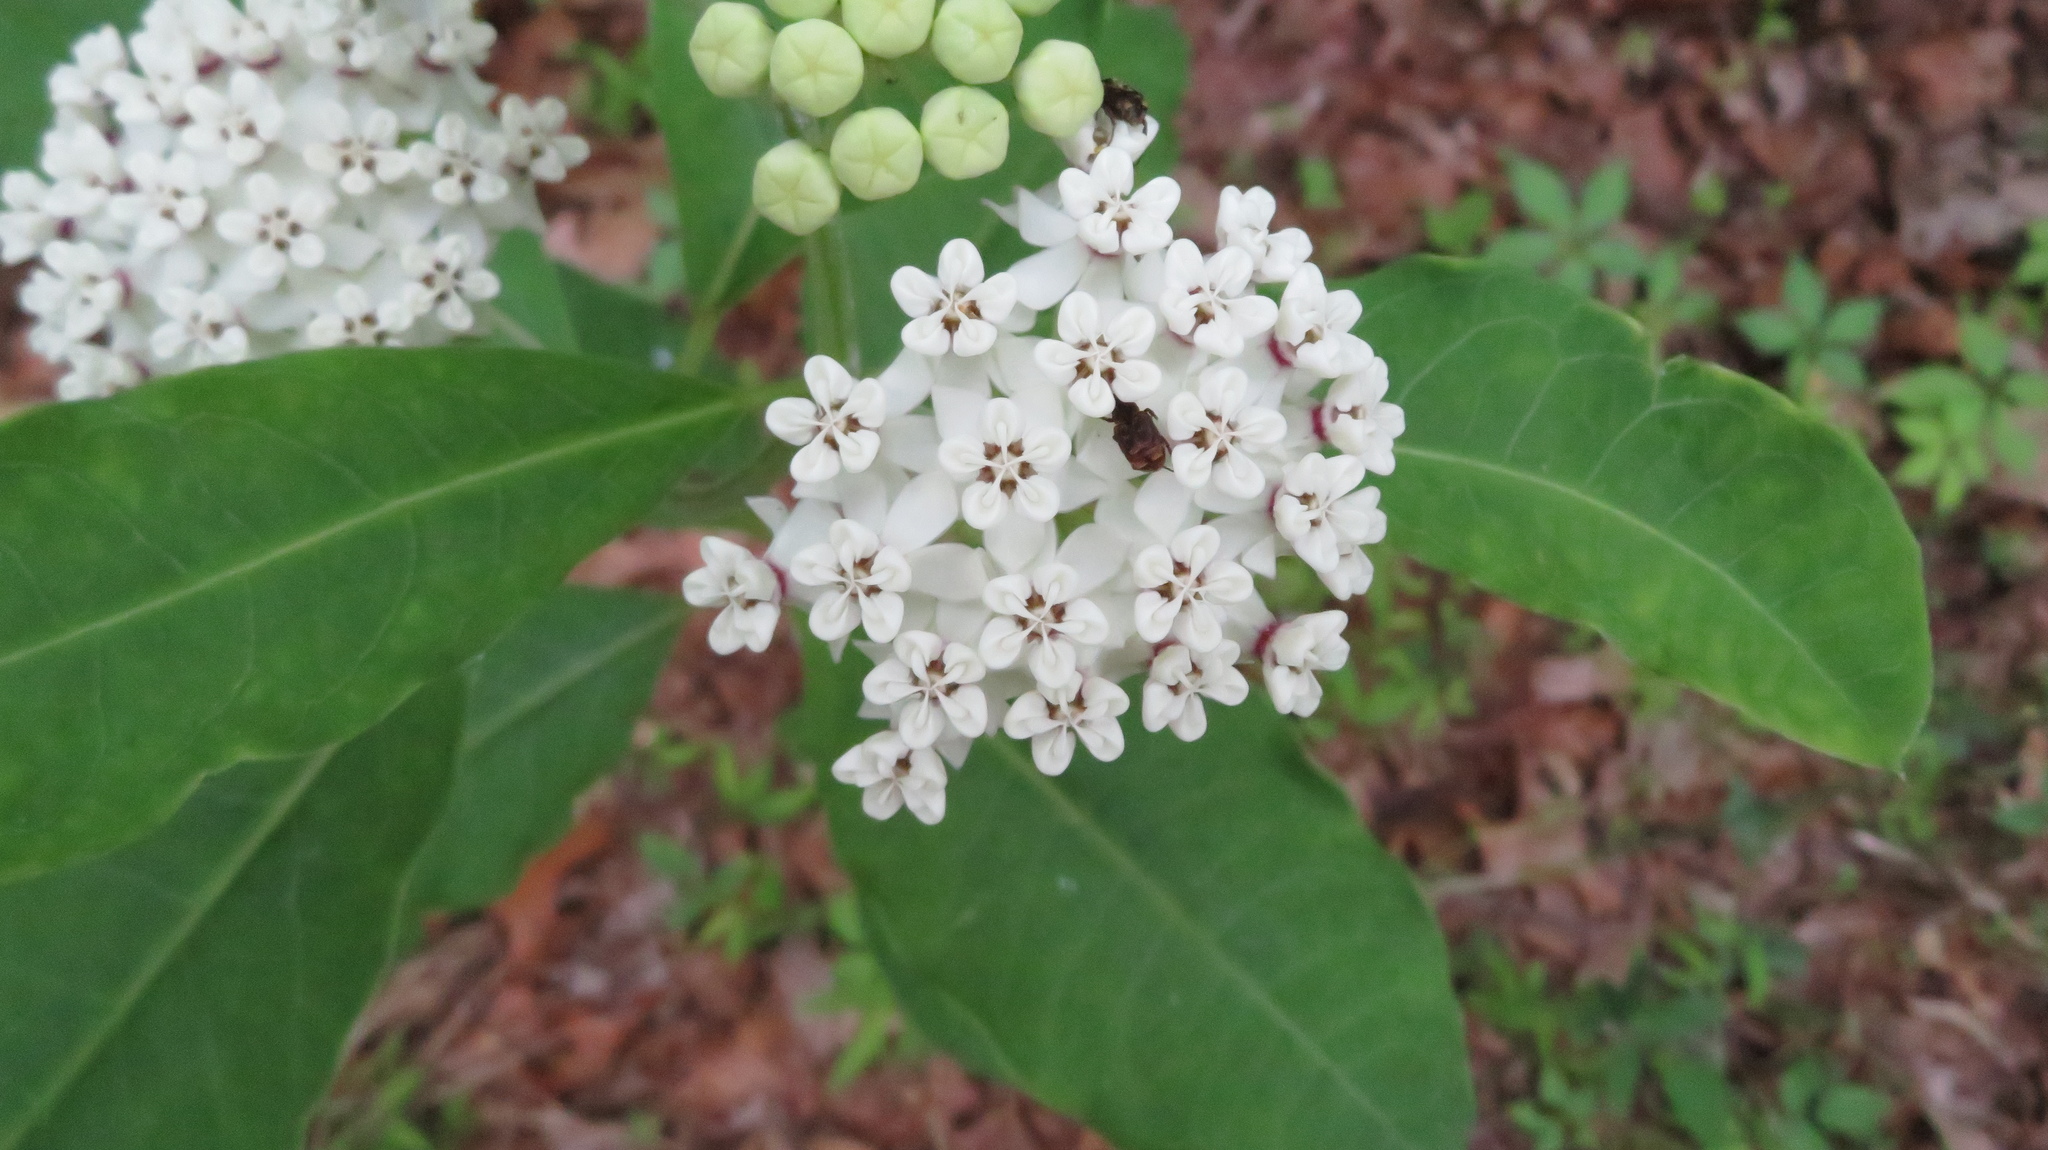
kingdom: Plantae
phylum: Tracheophyta
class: Magnoliopsida
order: Gentianales
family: Apocynaceae
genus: Asclepias
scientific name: Asclepias variegata
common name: Variegated milkweed
